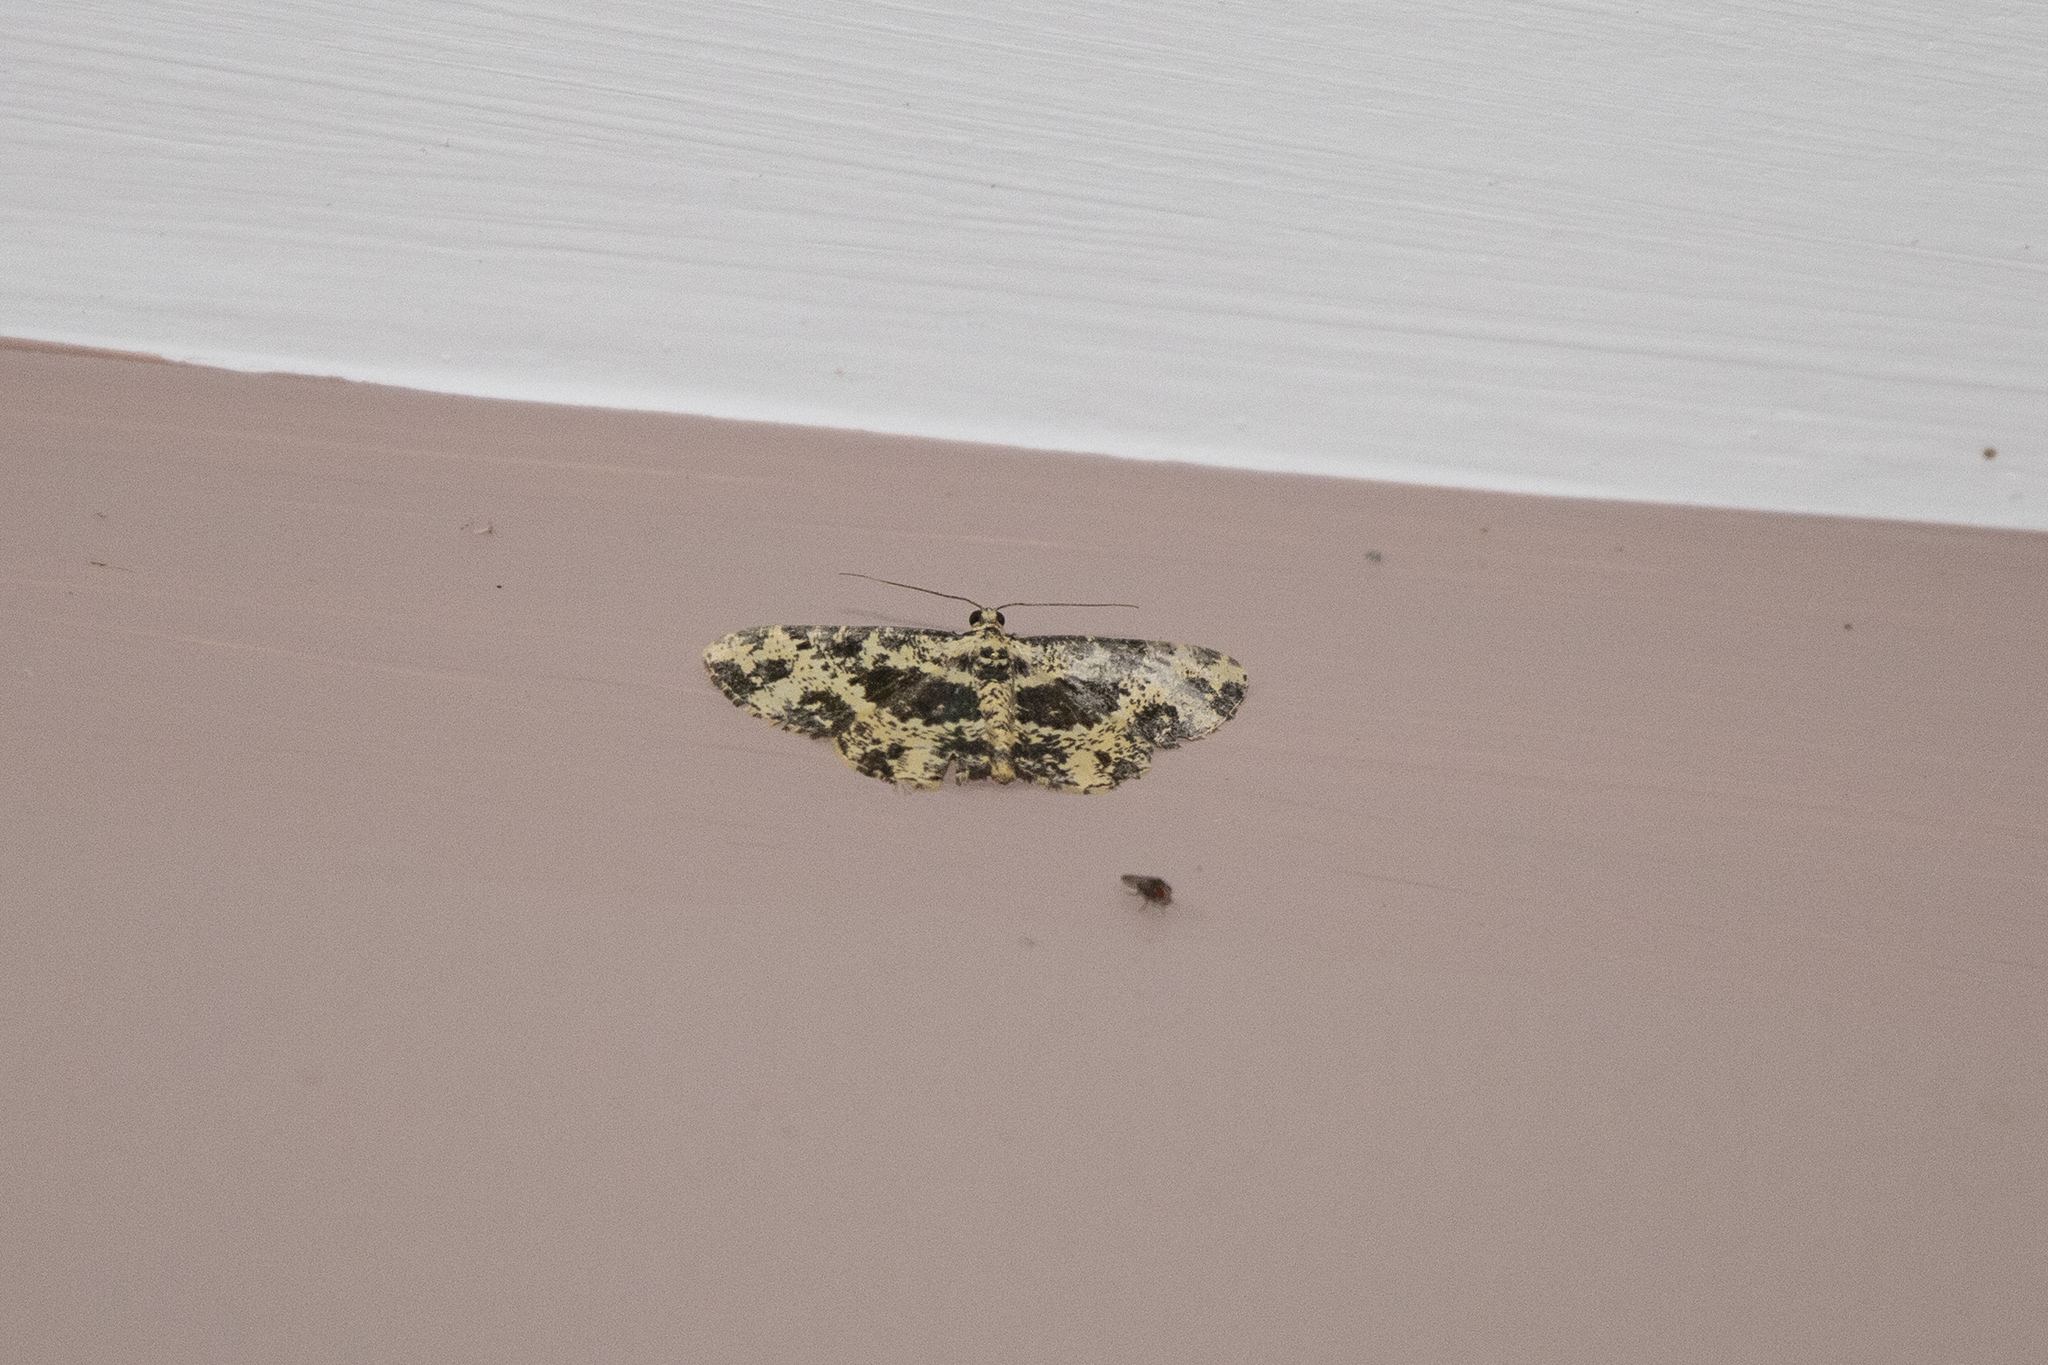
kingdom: Animalia
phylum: Arthropoda
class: Insecta
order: Lepidoptera
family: Geometridae
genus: Monocerotesa
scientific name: Monocerotesa radiata
